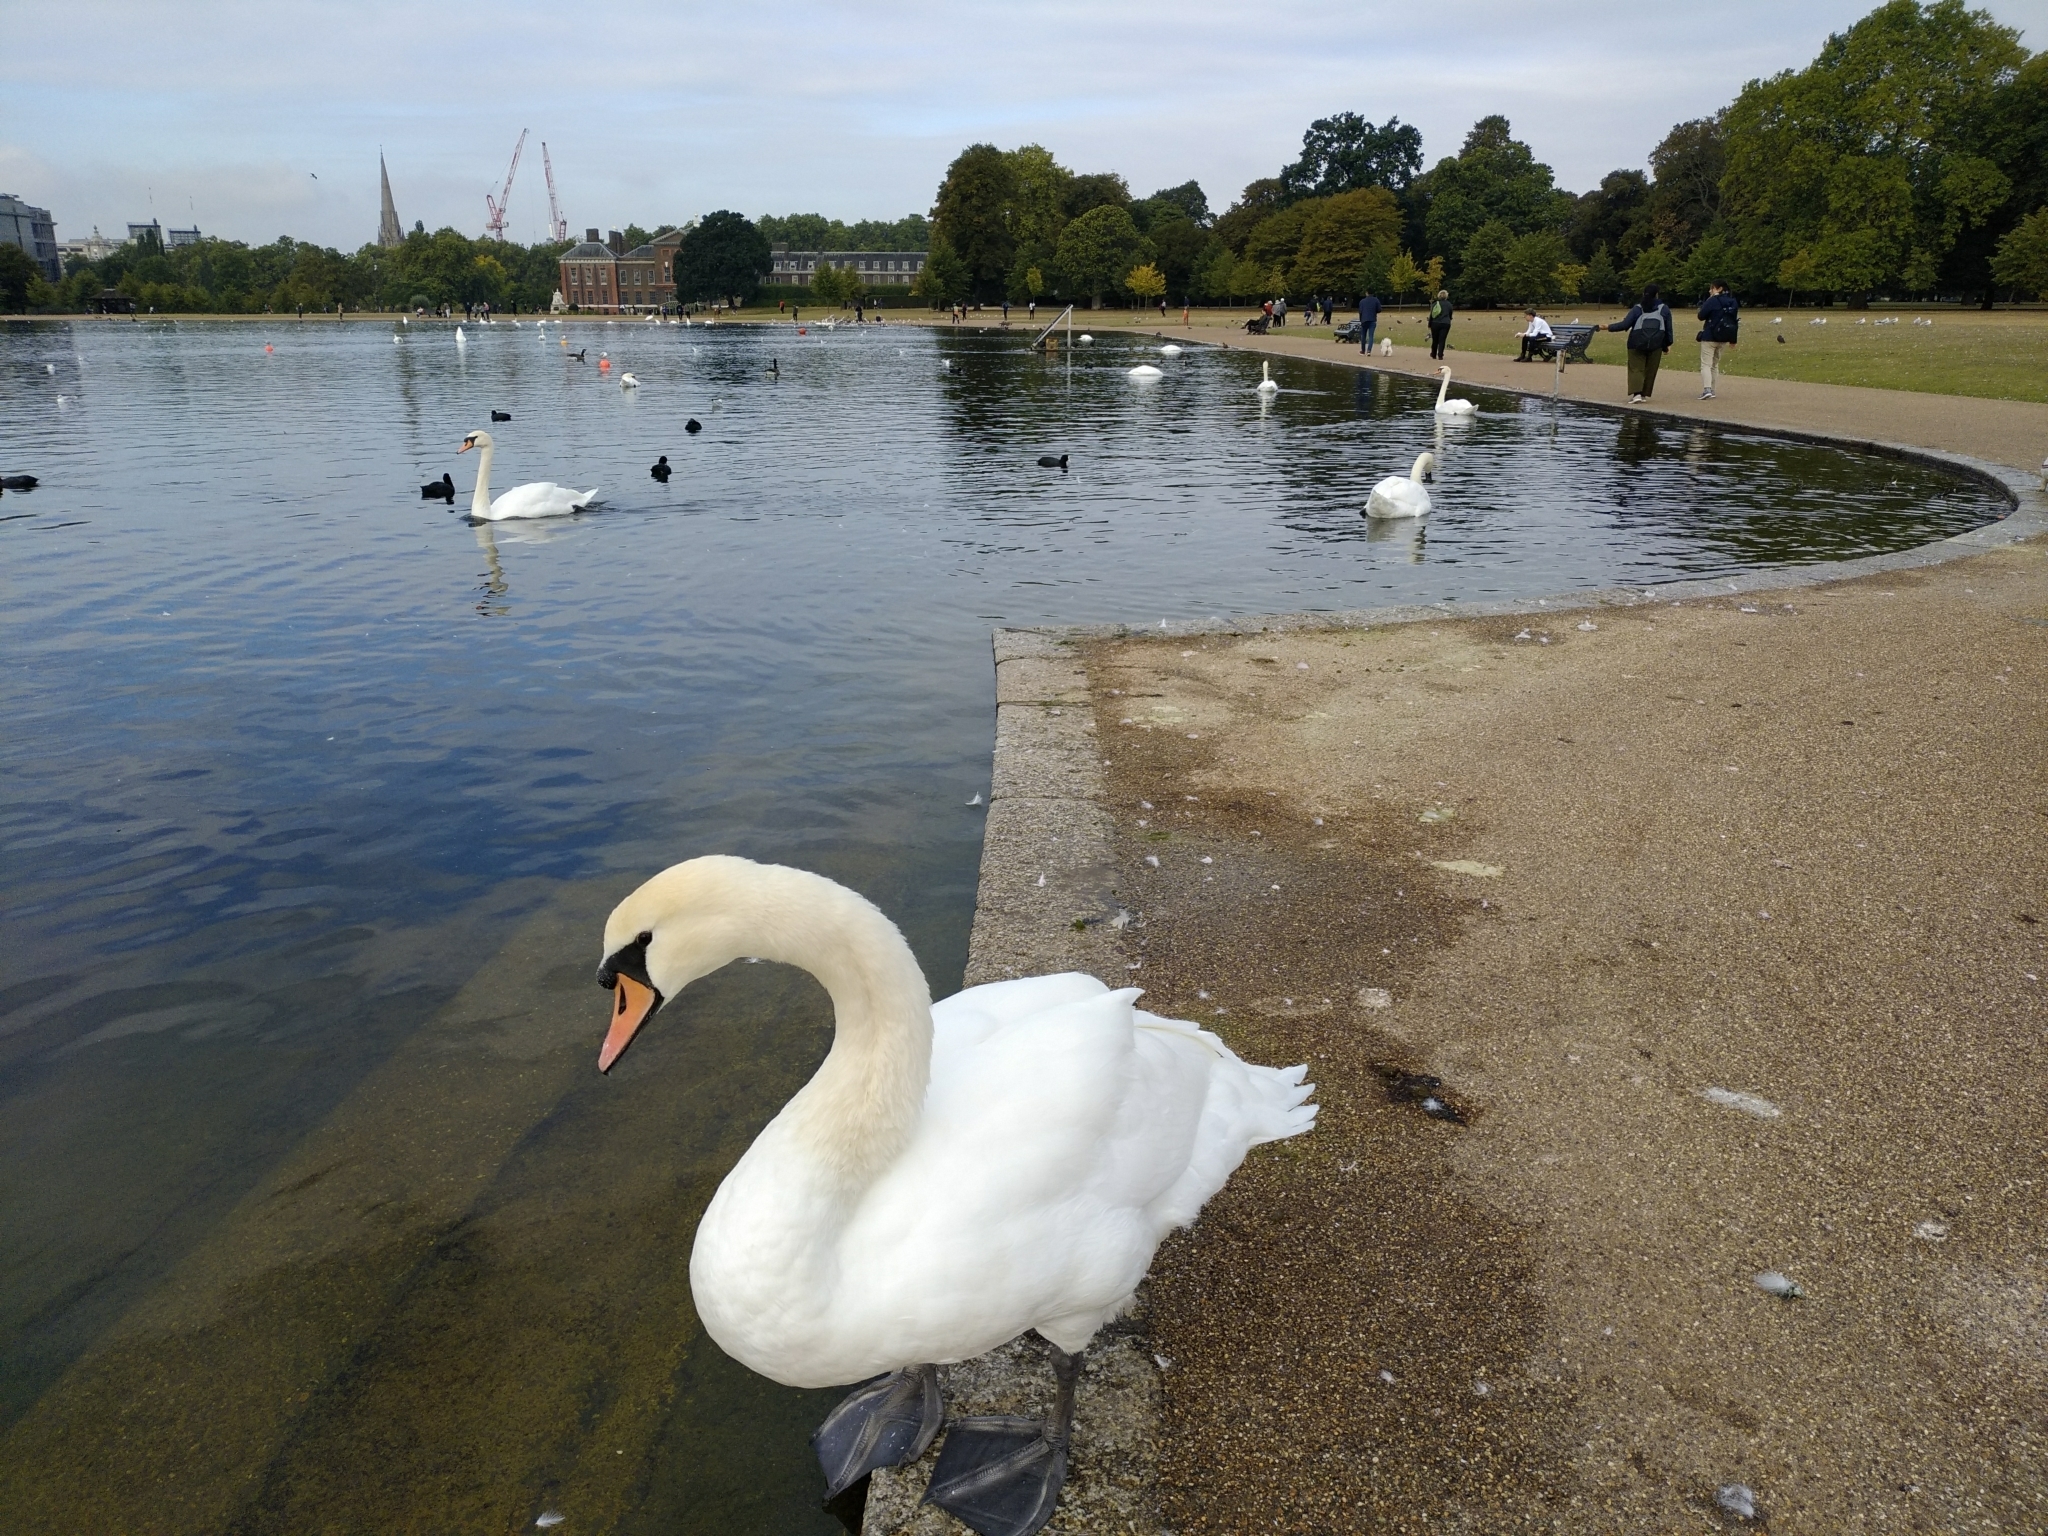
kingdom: Animalia
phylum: Chordata
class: Aves
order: Anseriformes
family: Anatidae
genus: Cygnus
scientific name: Cygnus olor
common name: Mute swan
